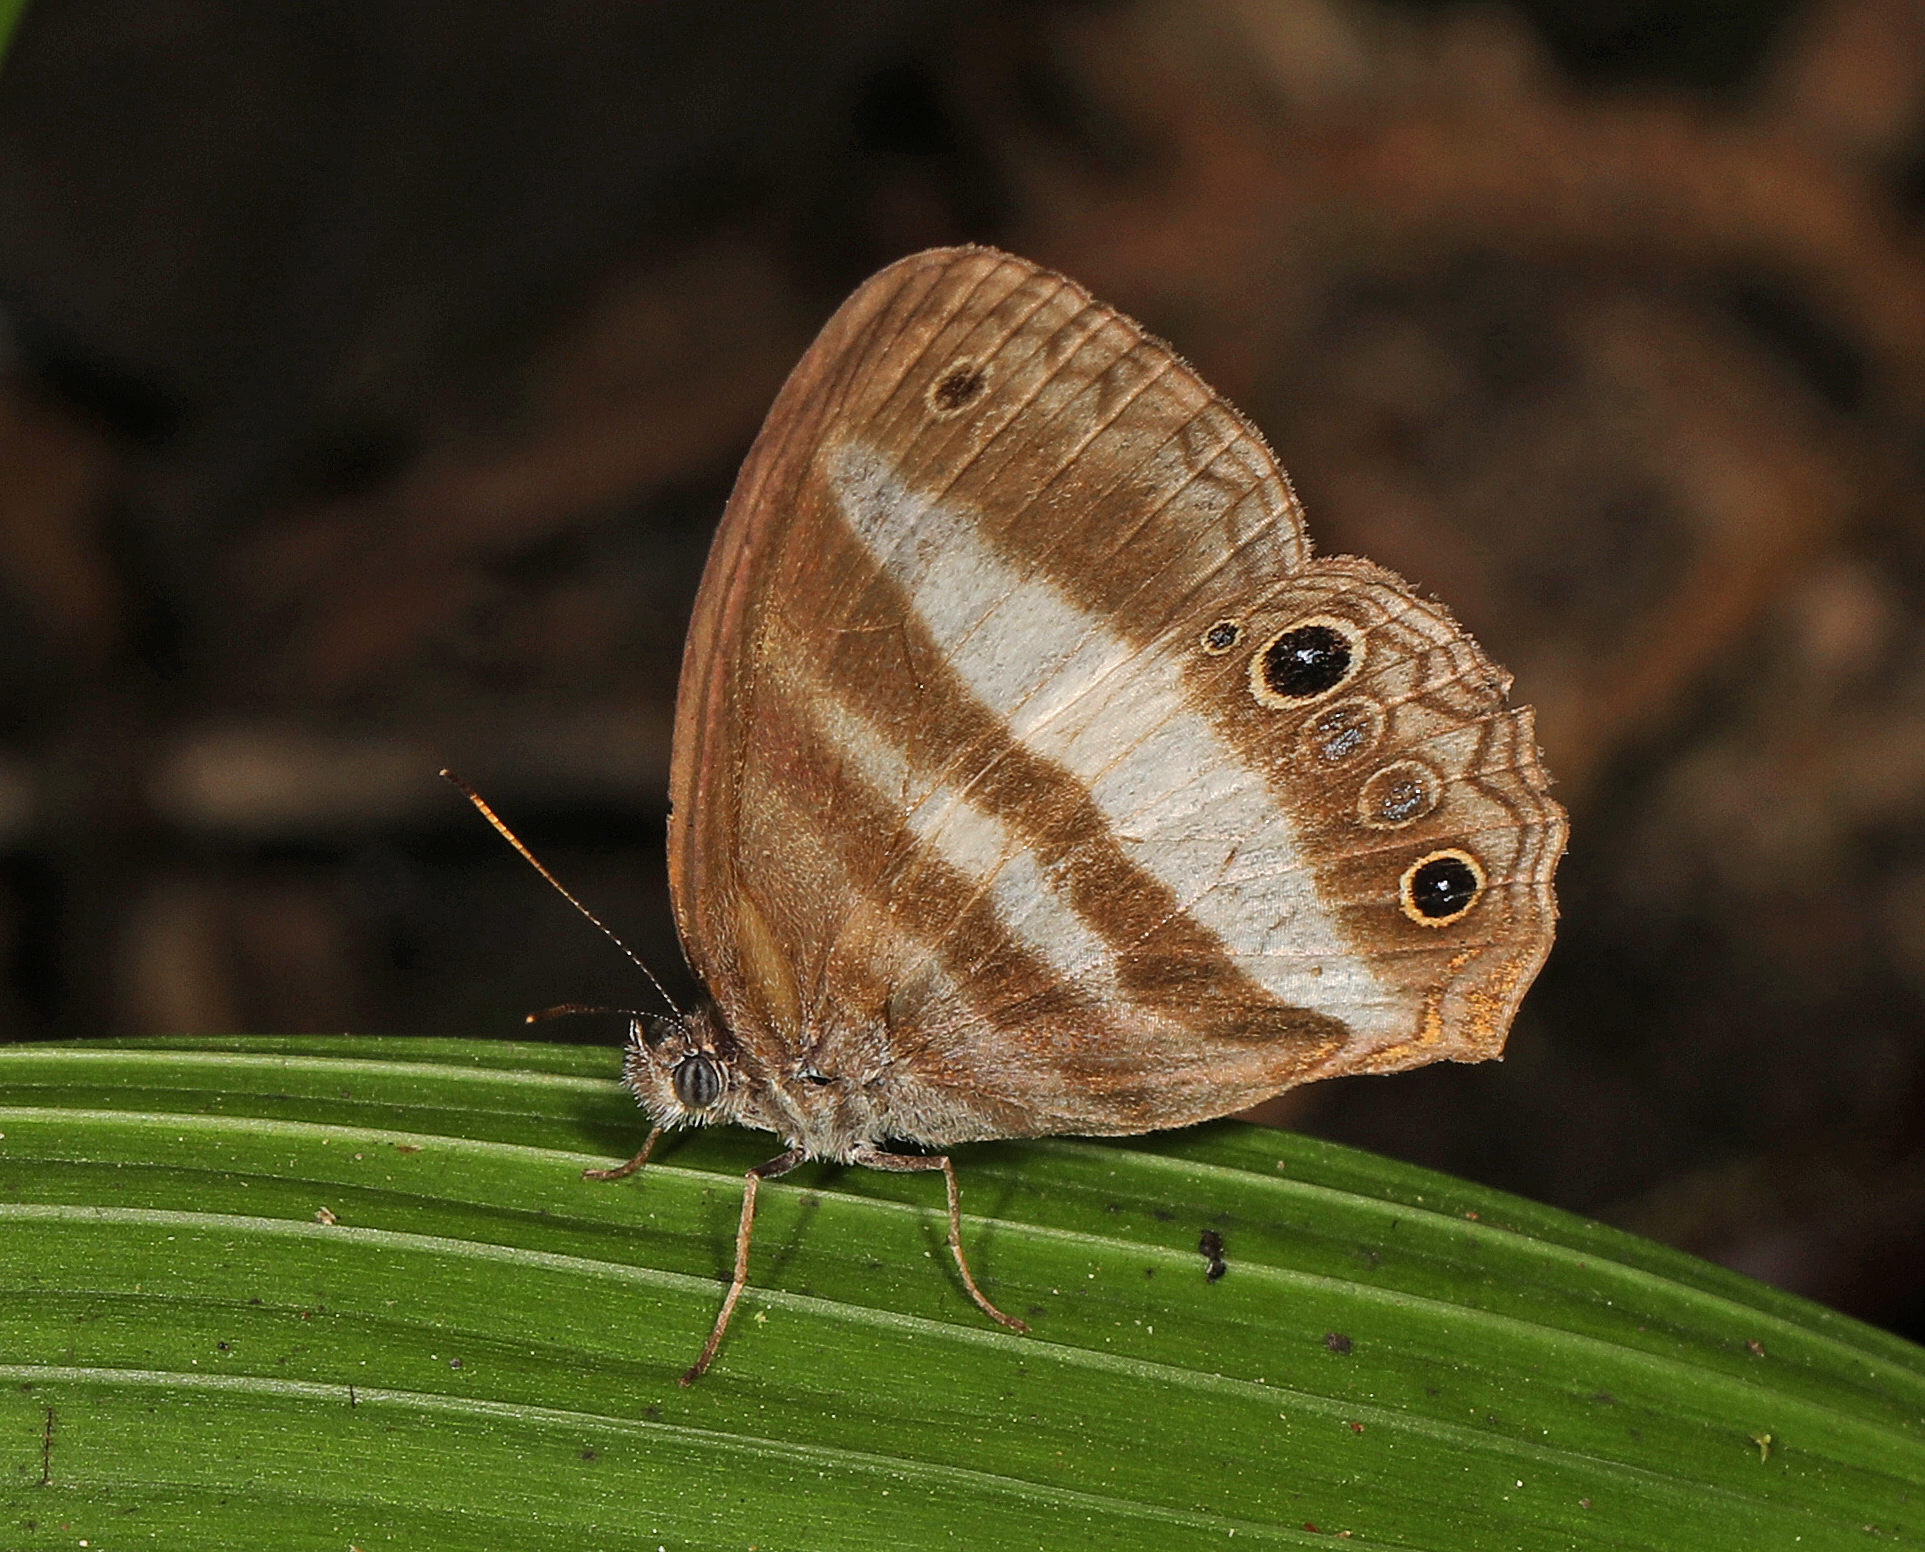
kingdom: Animalia
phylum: Arthropoda
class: Insecta
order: Lepidoptera
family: Nymphalidae
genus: Pareuptychia
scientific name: Pareuptychia hesione
